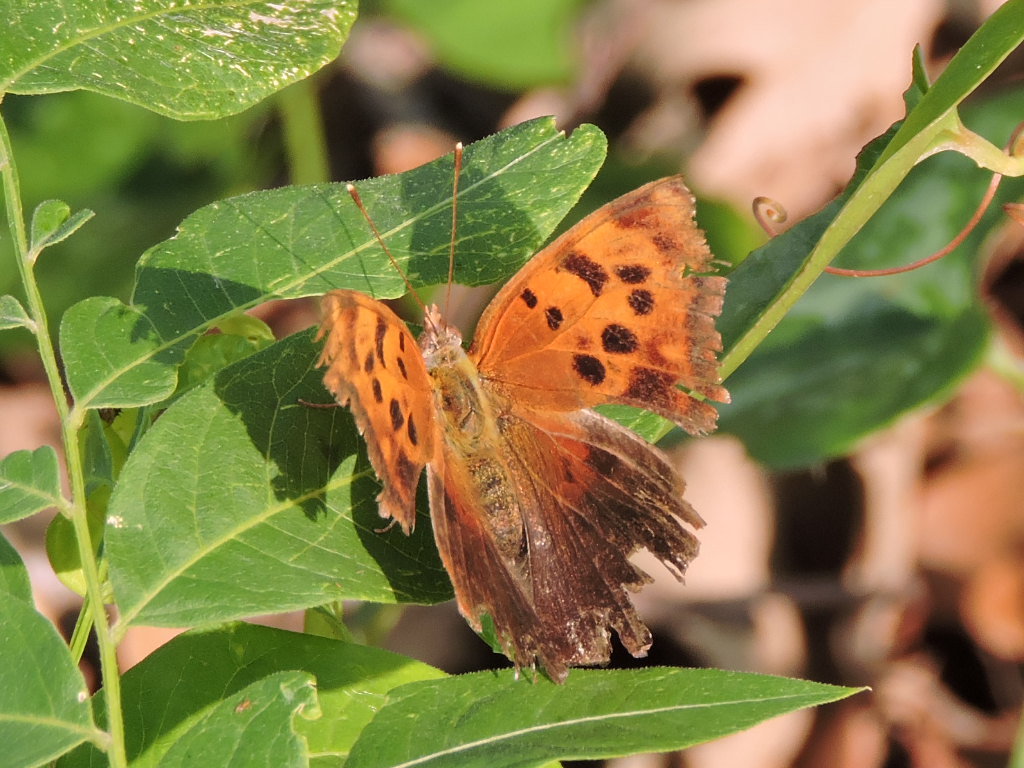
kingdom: Animalia
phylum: Arthropoda
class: Insecta
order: Lepidoptera
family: Nymphalidae
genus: Polygonia
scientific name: Polygonia interrogationis
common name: Question mark
